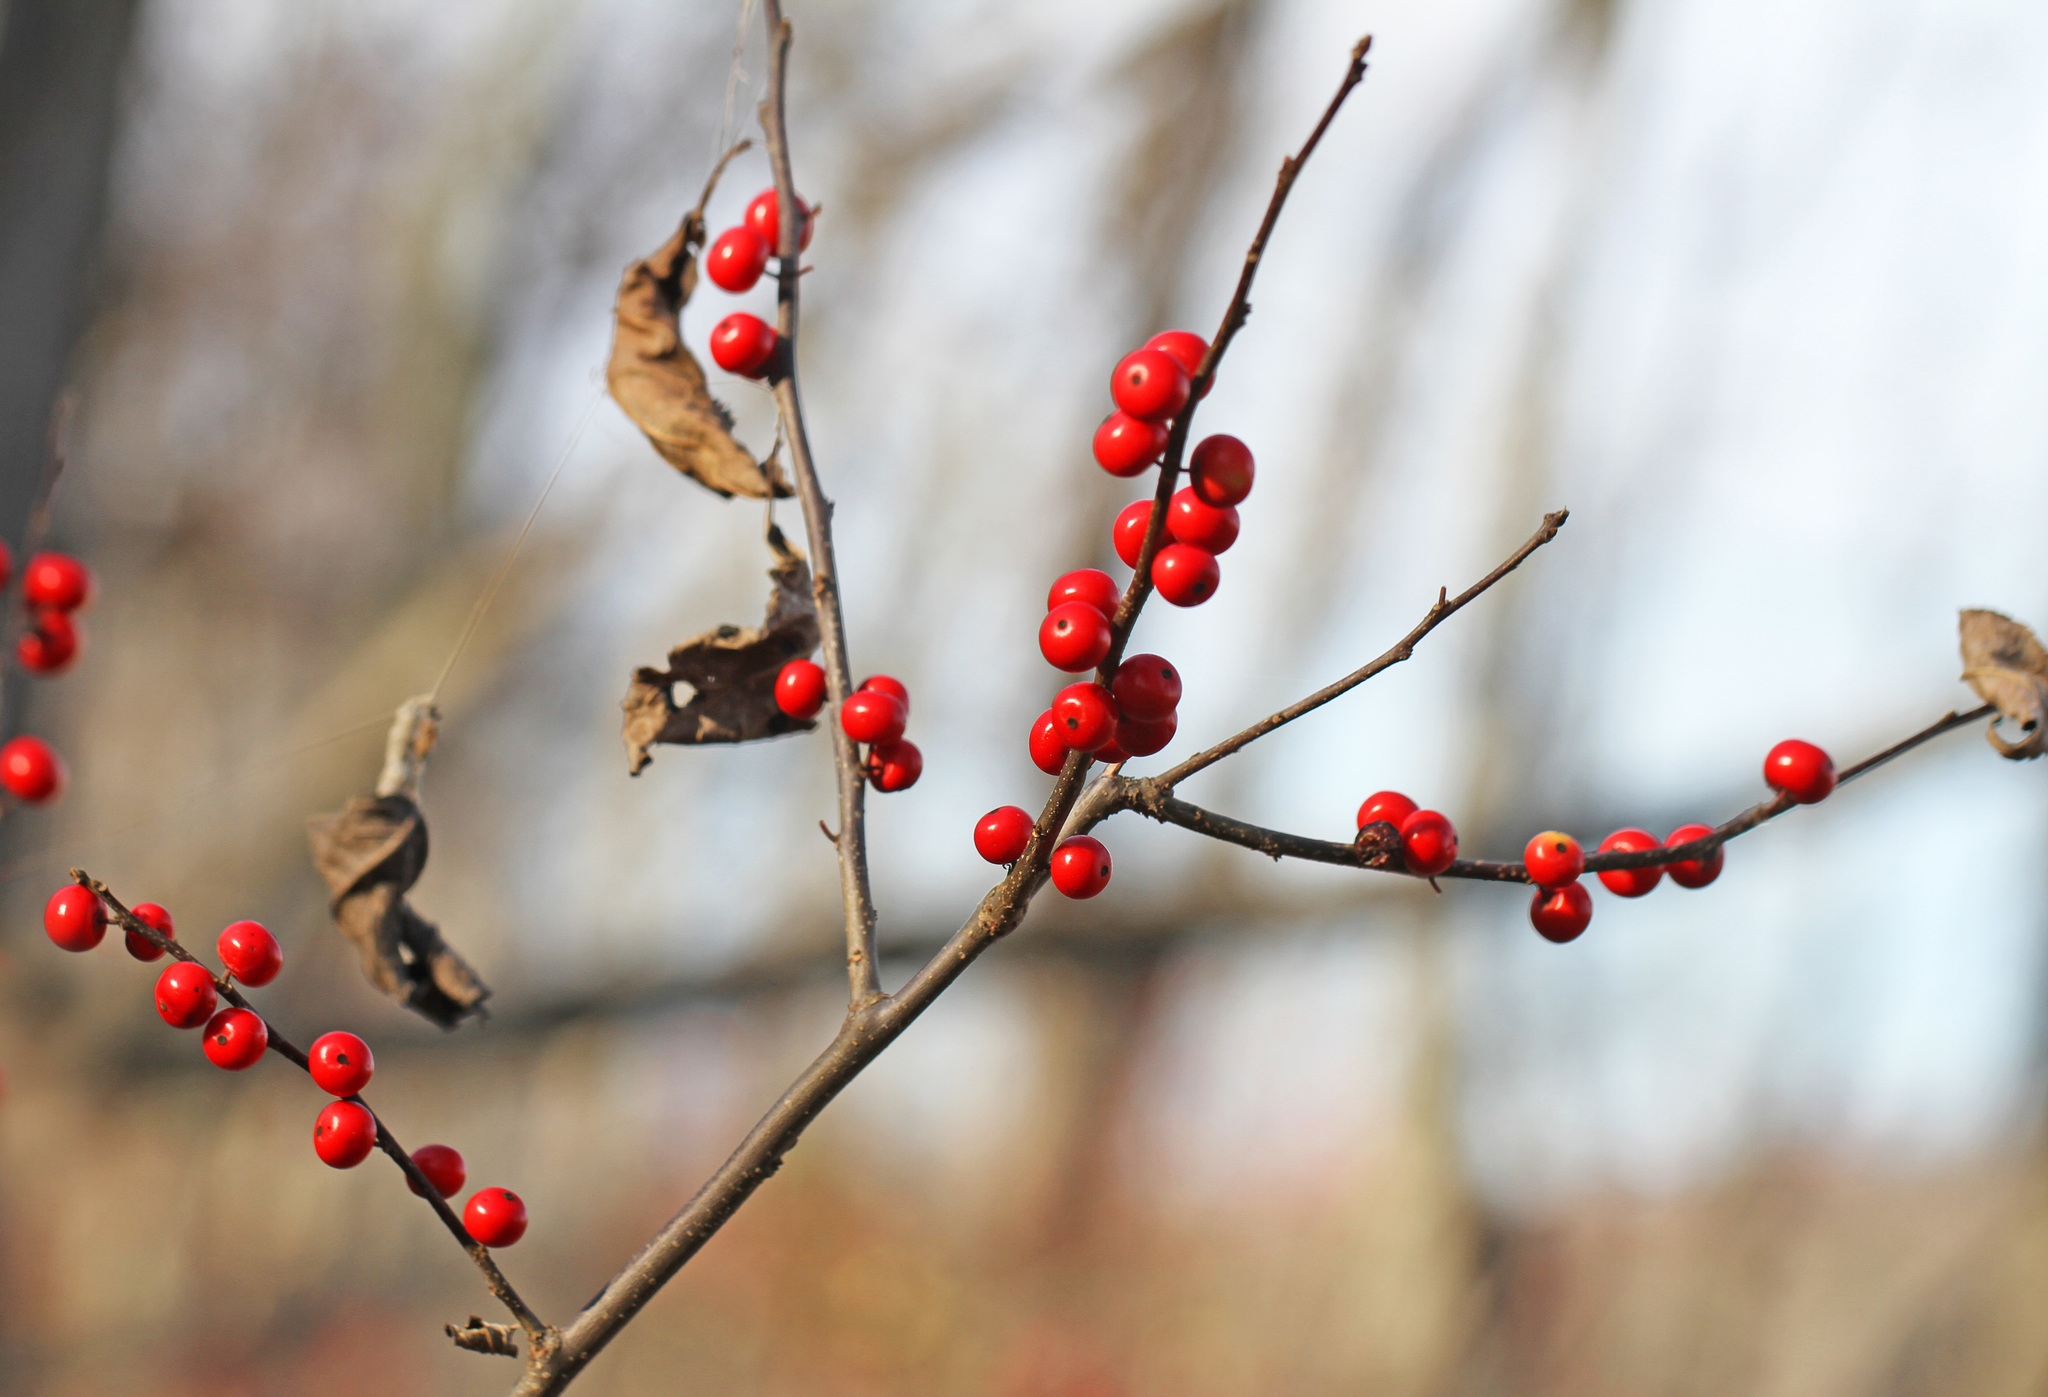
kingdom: Plantae
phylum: Tracheophyta
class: Magnoliopsida
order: Aquifoliales
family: Aquifoliaceae
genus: Ilex
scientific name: Ilex verticillata
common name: Virginia winterberry
